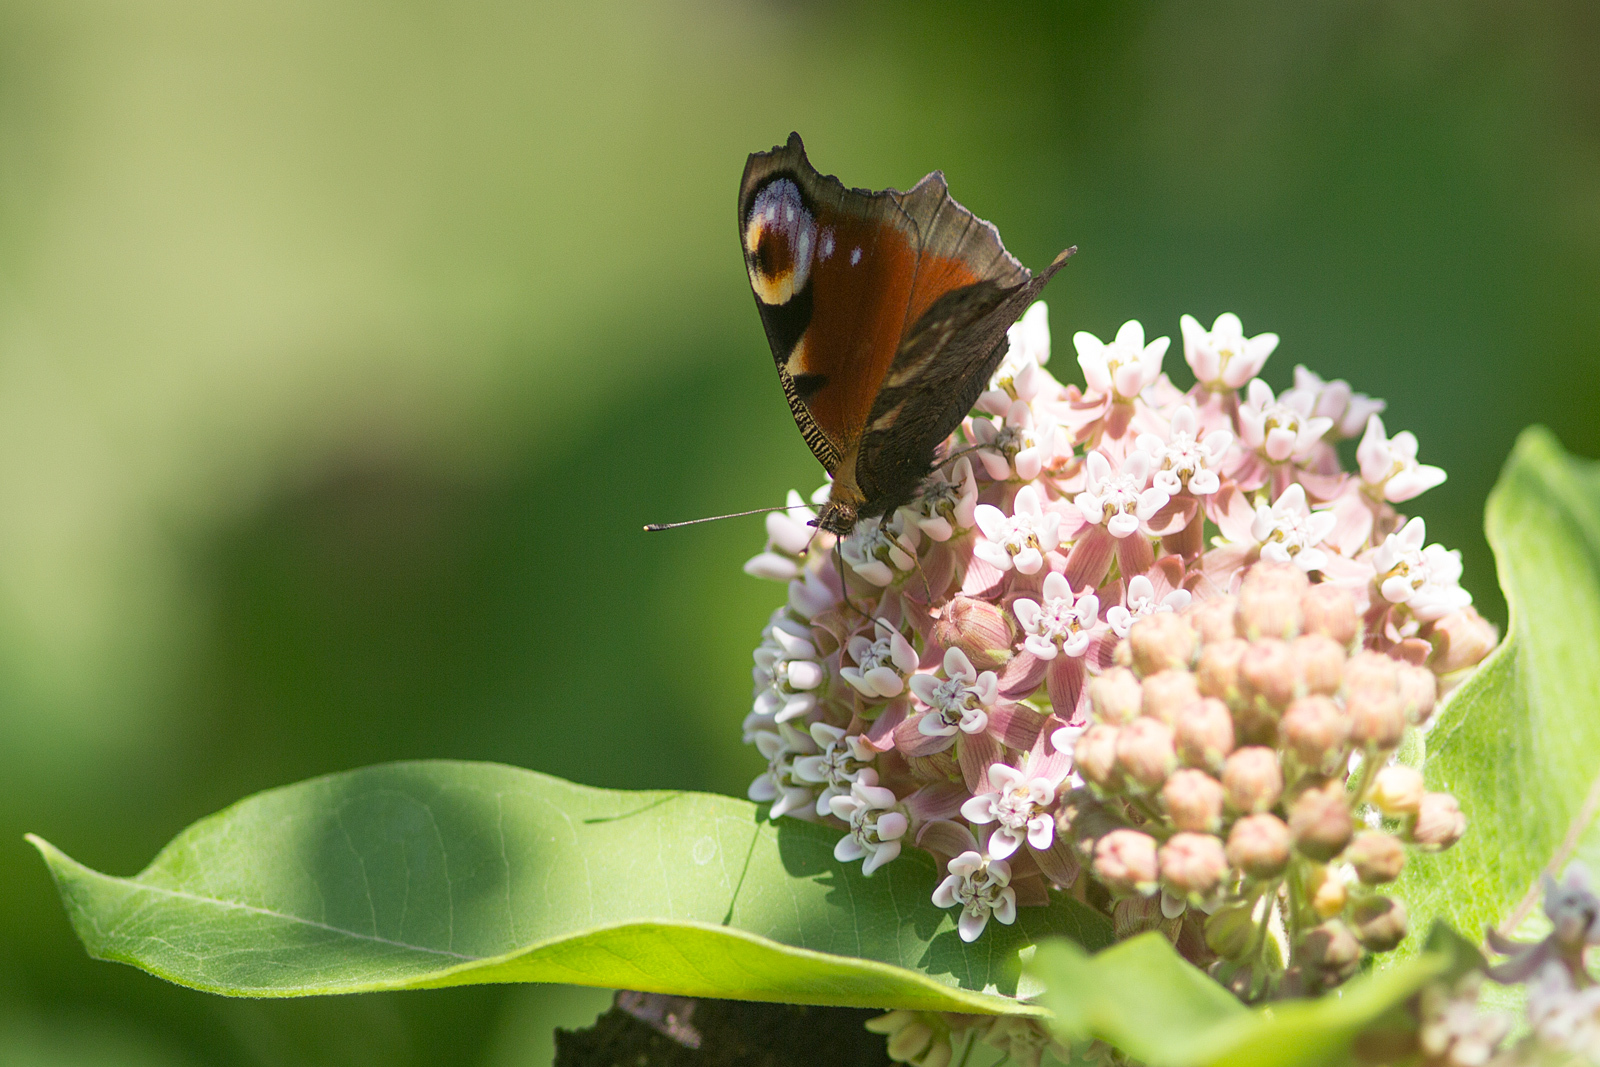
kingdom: Animalia
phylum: Arthropoda
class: Insecta
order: Lepidoptera
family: Nymphalidae
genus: Aglais
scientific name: Aglais io
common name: Peacock
